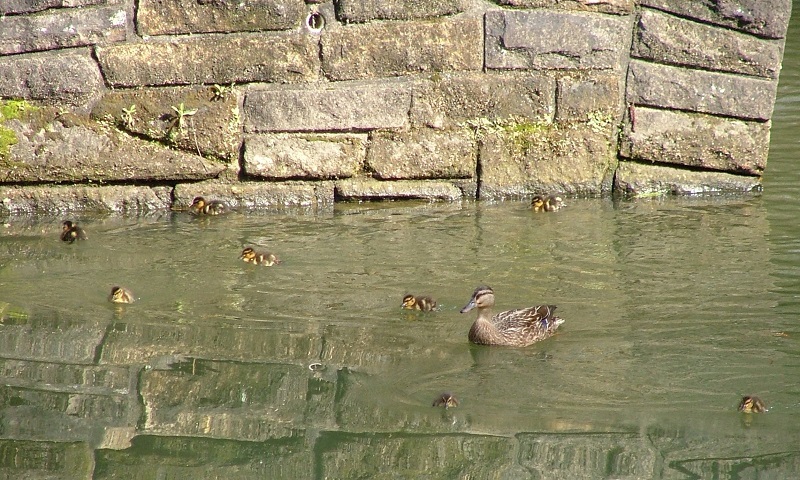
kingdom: Animalia
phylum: Chordata
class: Aves
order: Anseriformes
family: Anatidae
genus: Anas
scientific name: Anas
